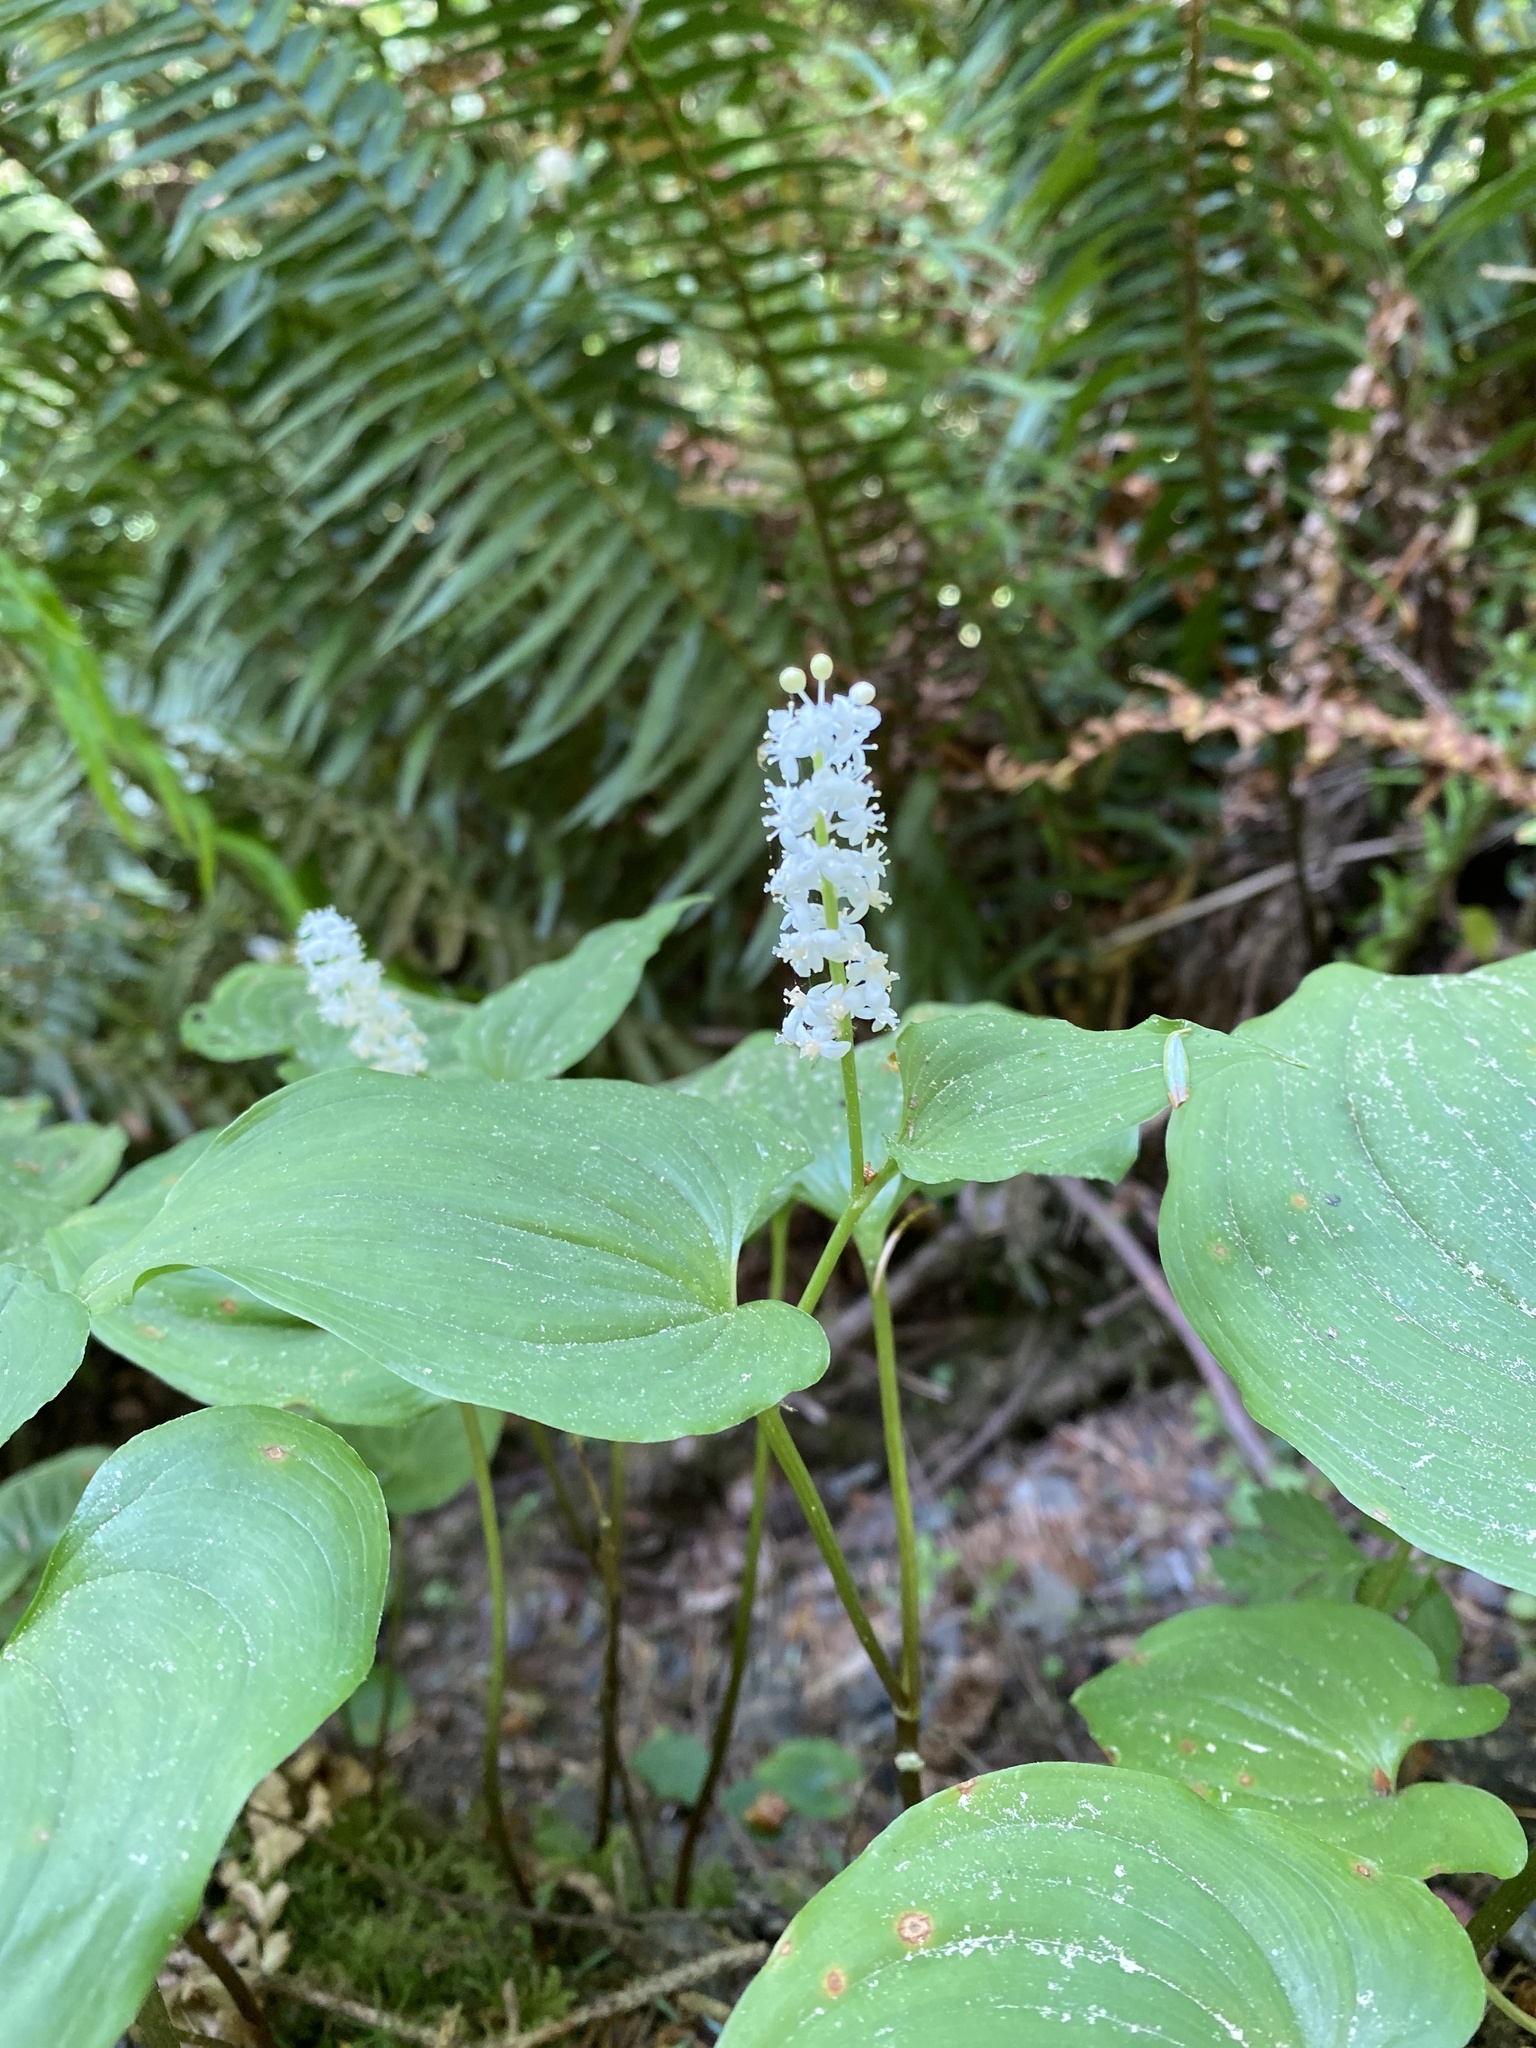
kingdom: Plantae
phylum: Tracheophyta
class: Liliopsida
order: Asparagales
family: Asparagaceae
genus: Maianthemum
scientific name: Maianthemum dilatatum
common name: False lily-of-the-valley
